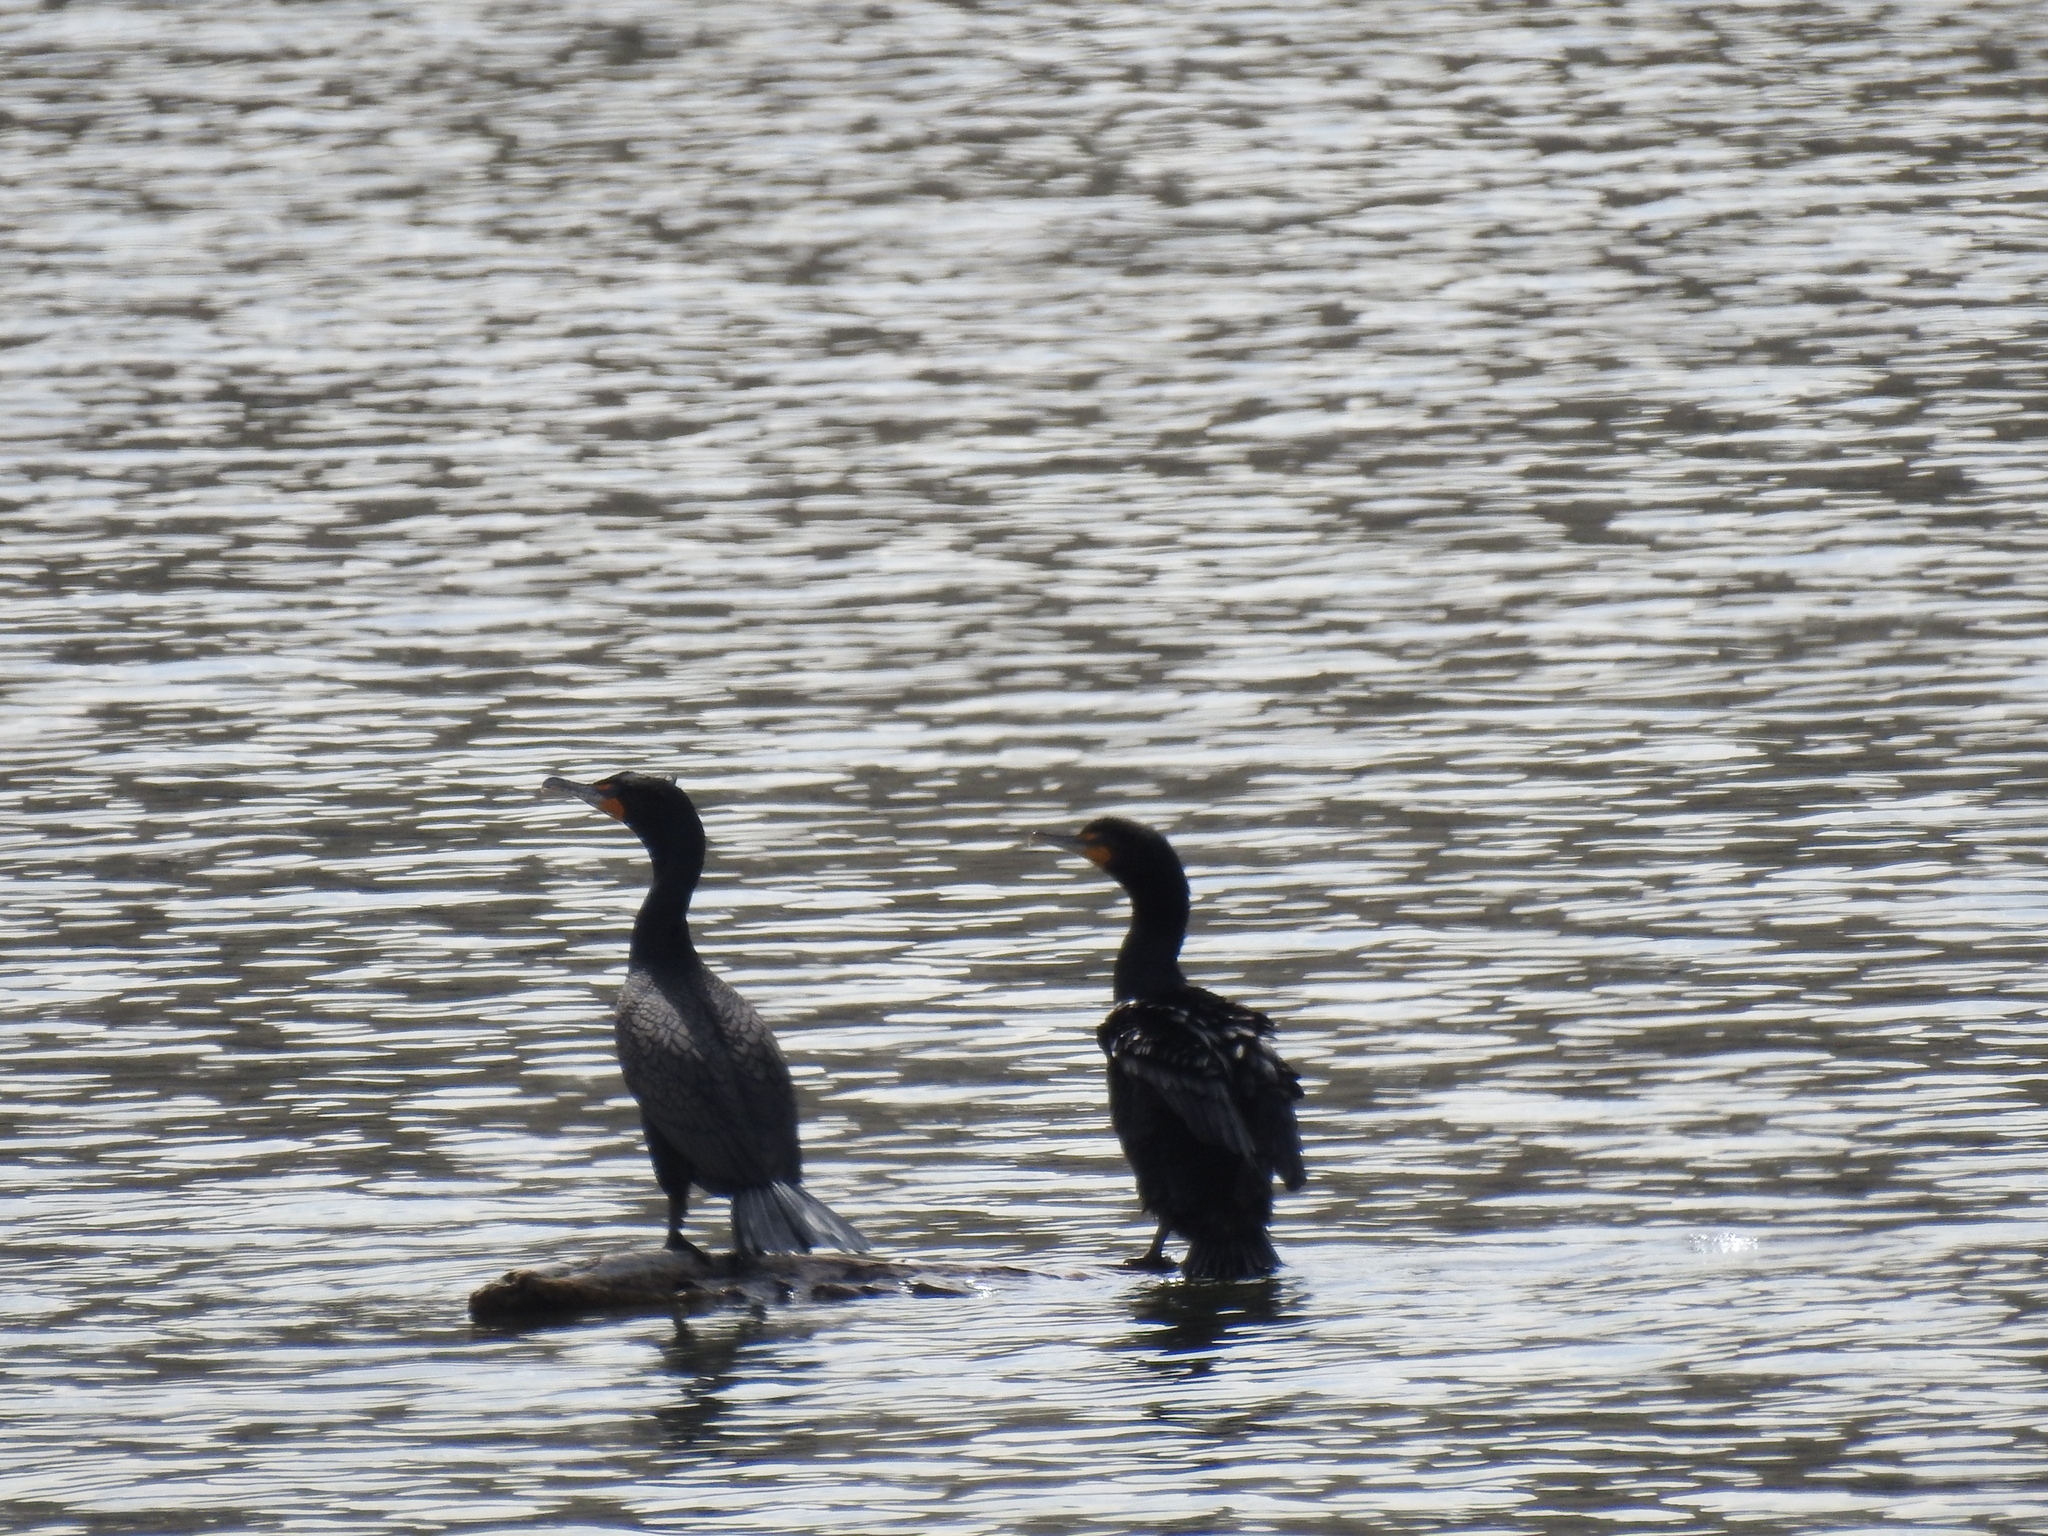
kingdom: Animalia
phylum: Chordata
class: Aves
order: Suliformes
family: Phalacrocoracidae
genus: Phalacrocorax
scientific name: Phalacrocorax auritus
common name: Double-crested cormorant
